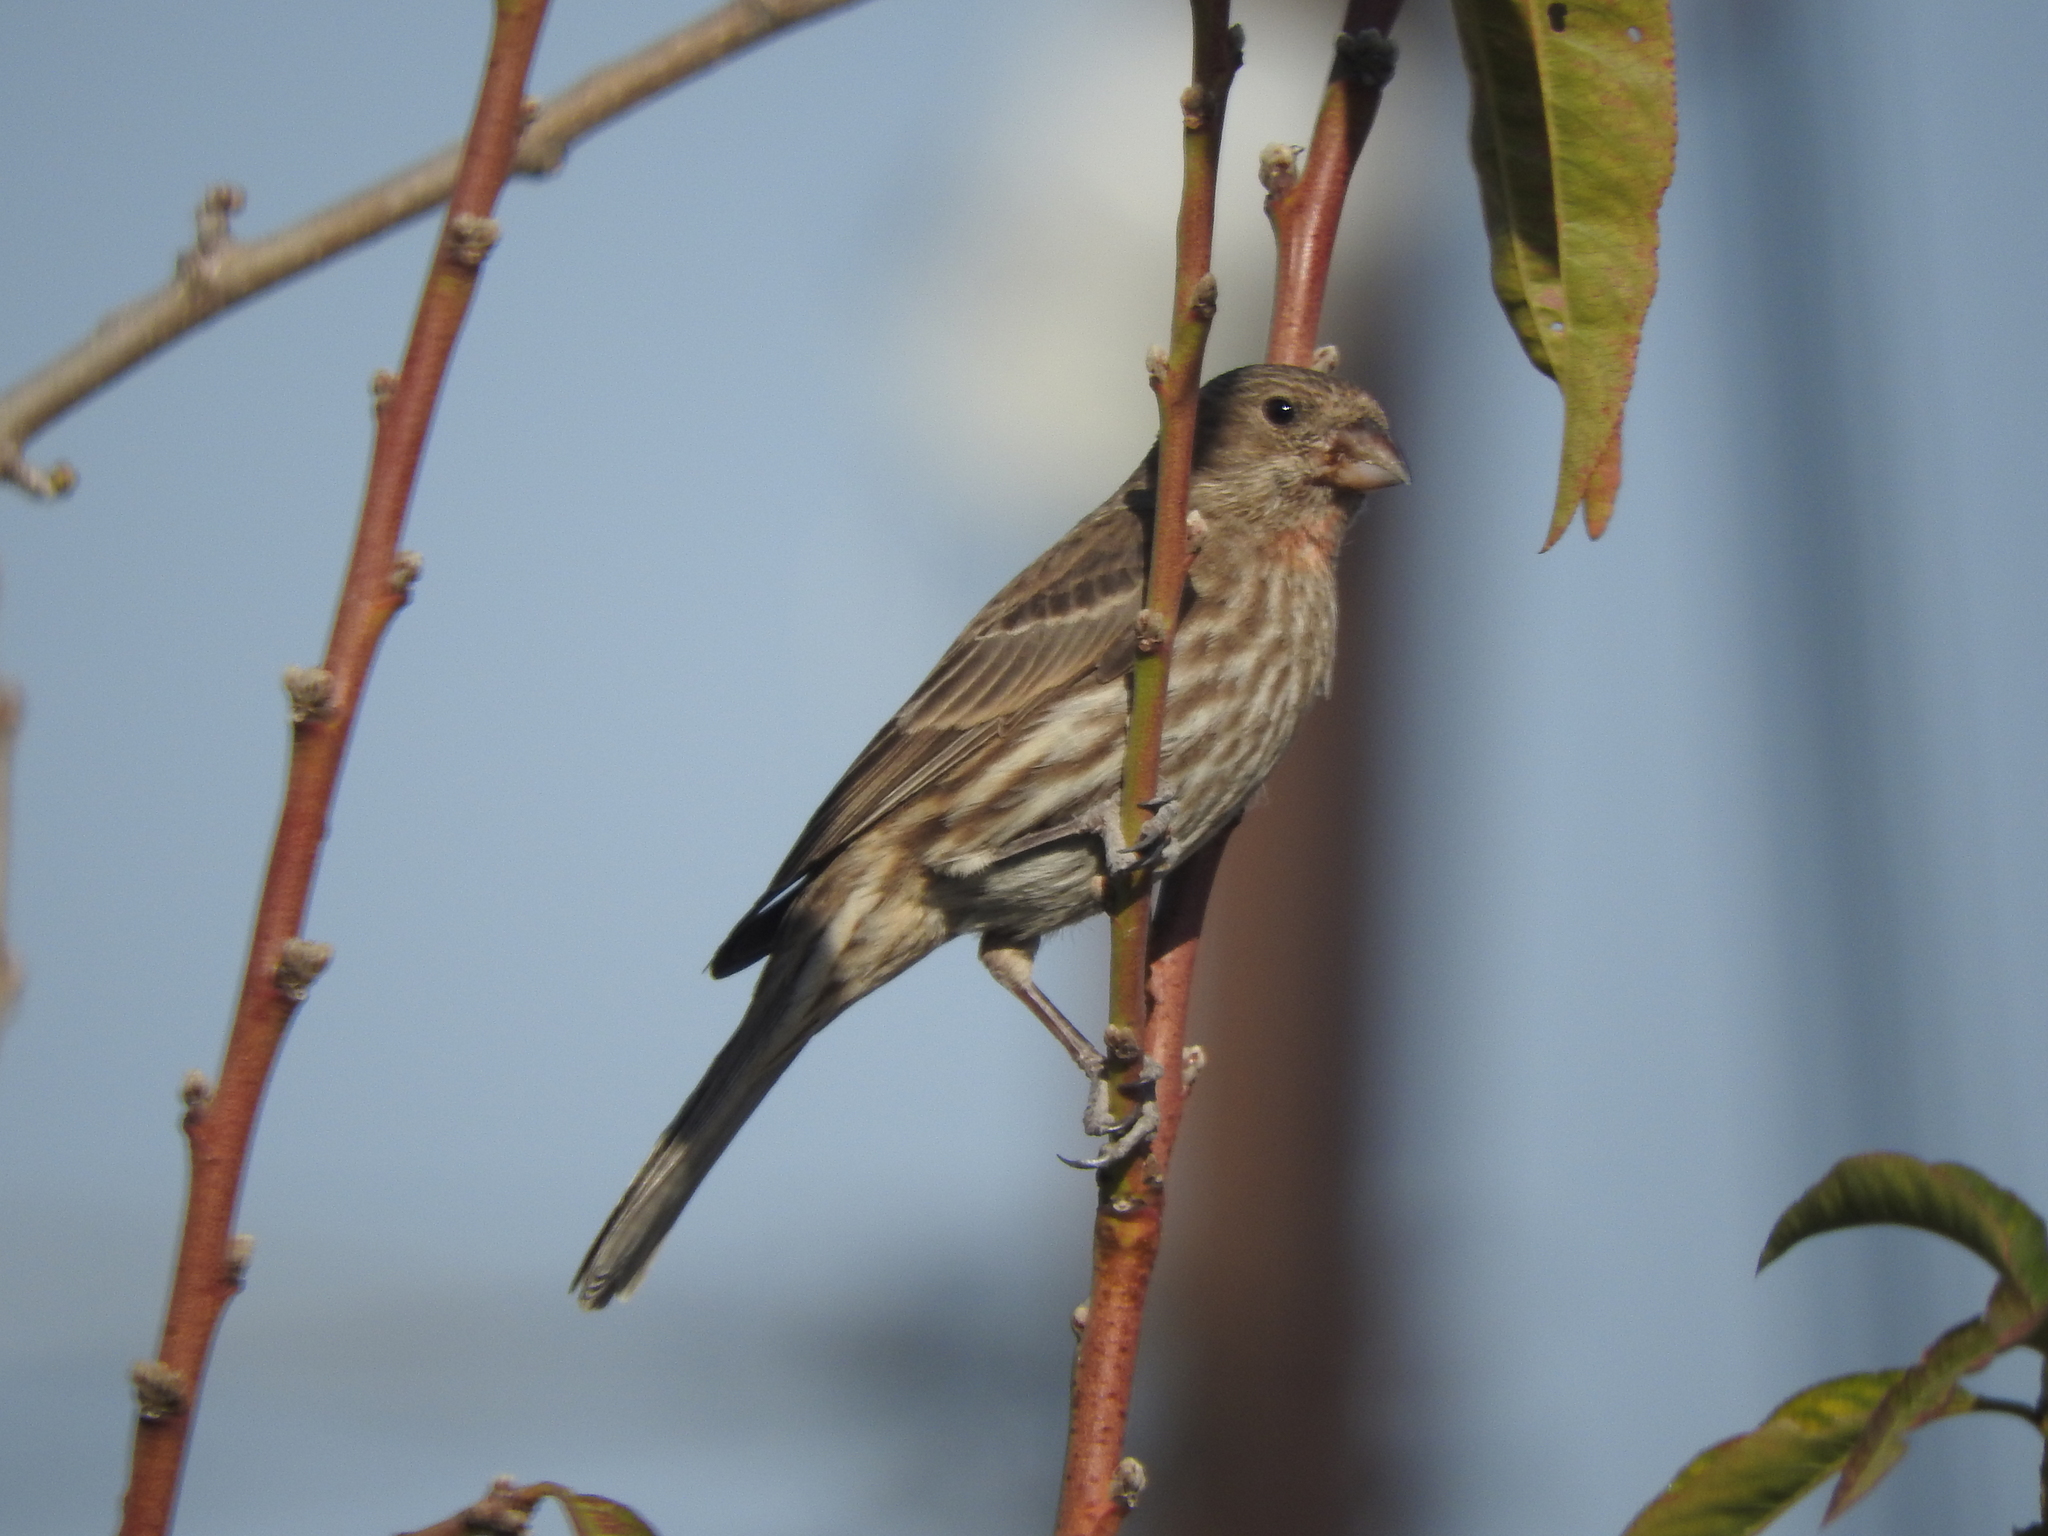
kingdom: Animalia
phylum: Chordata
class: Aves
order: Passeriformes
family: Fringillidae
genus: Haemorhous
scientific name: Haemorhous mexicanus
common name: House finch
